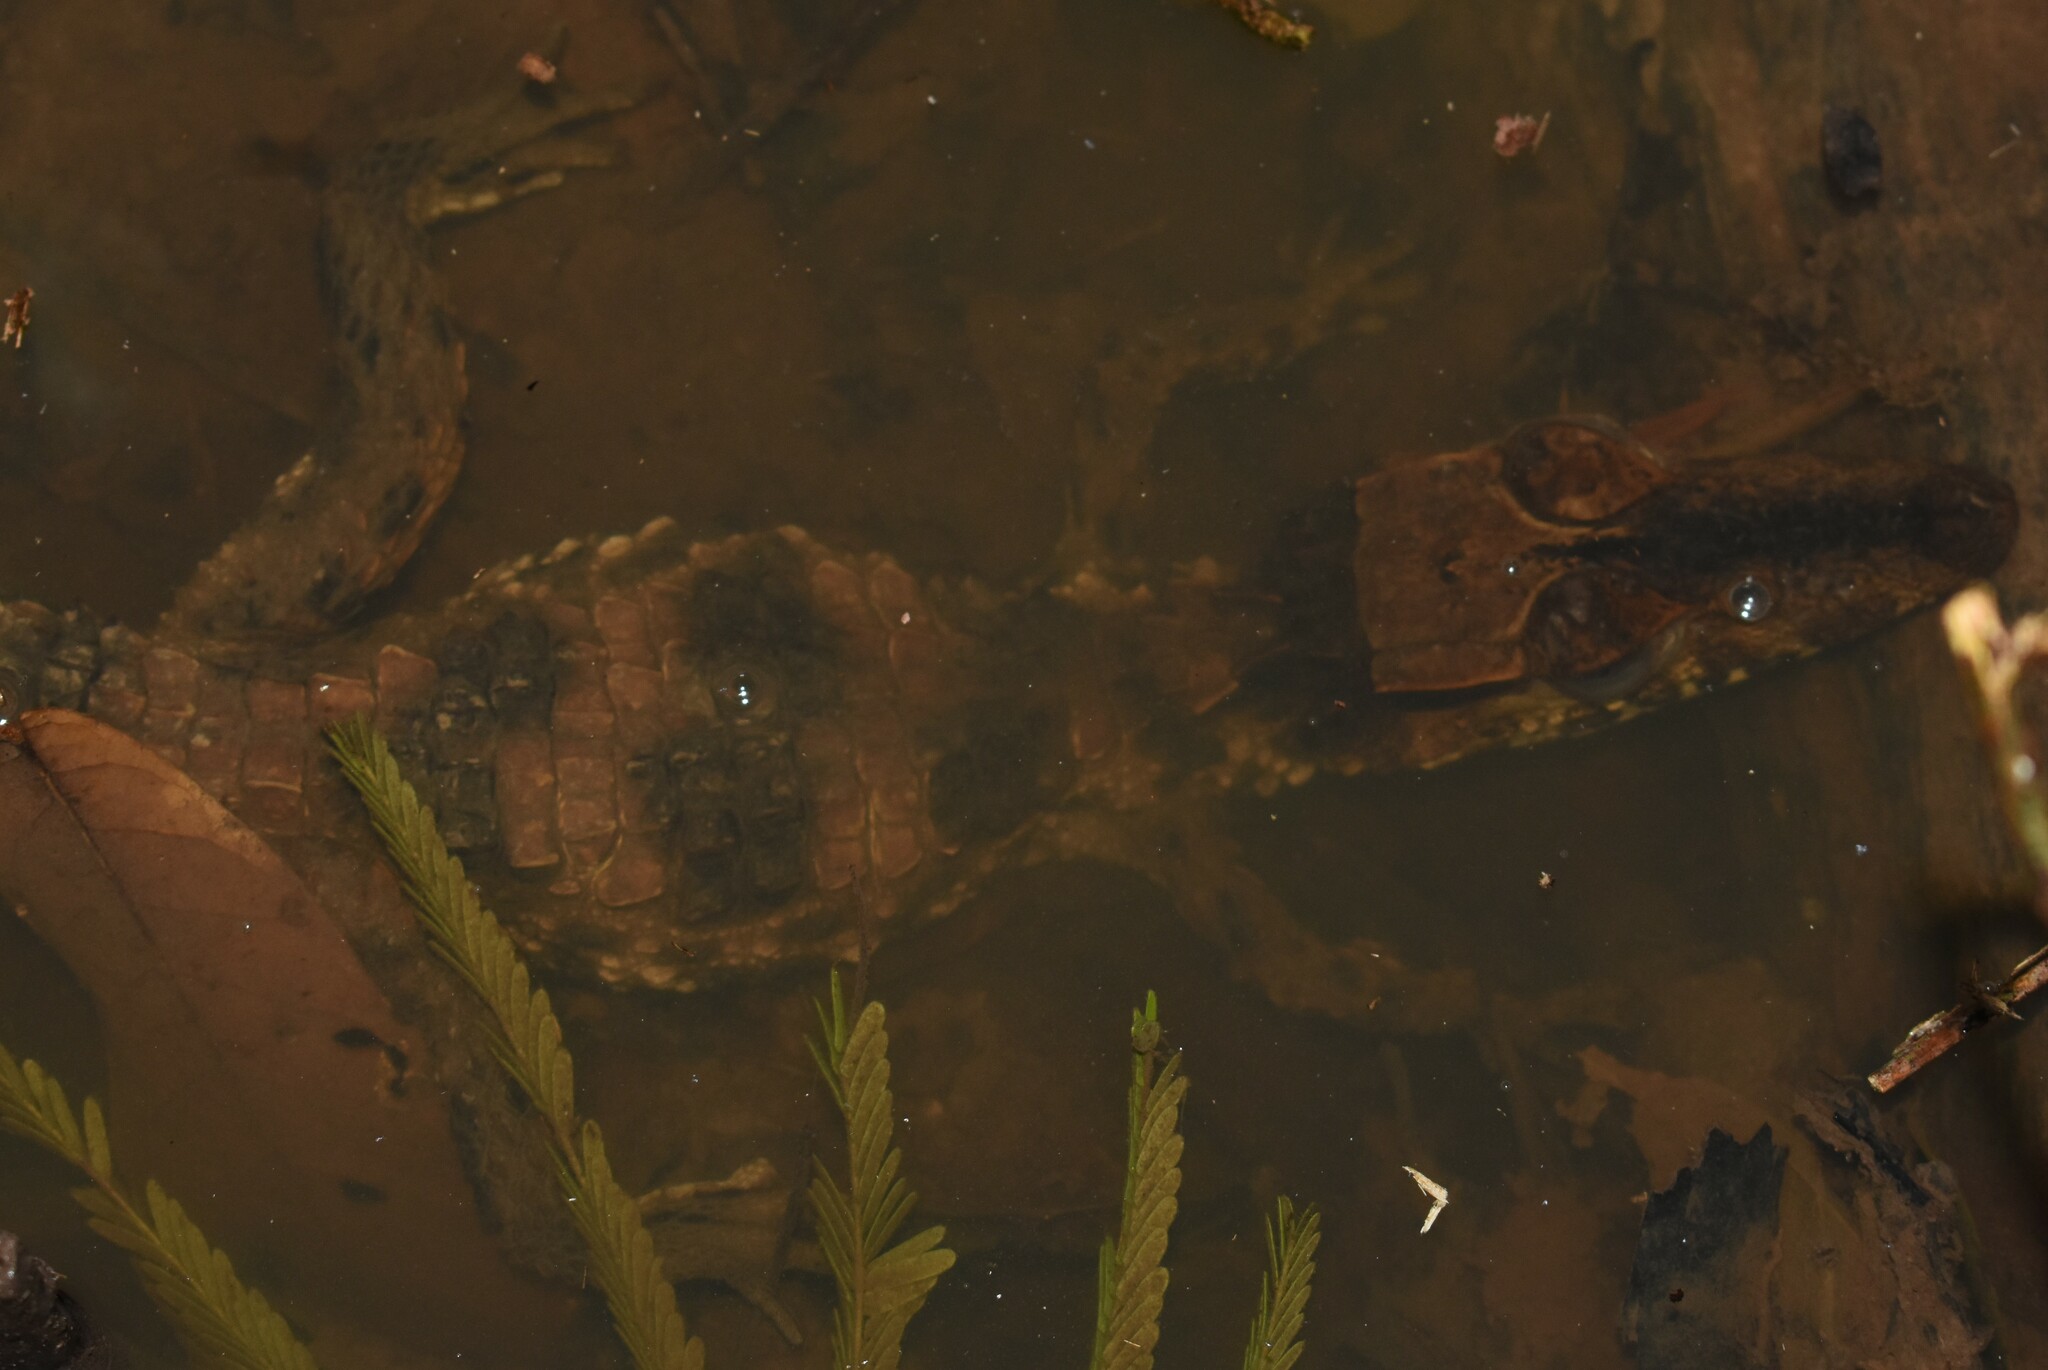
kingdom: Animalia
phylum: Chordata
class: Crocodylia
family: Alligatoridae
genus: Paleosuchus
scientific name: Paleosuchus trigonatus
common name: Schneider's smooth-fronted caiman
